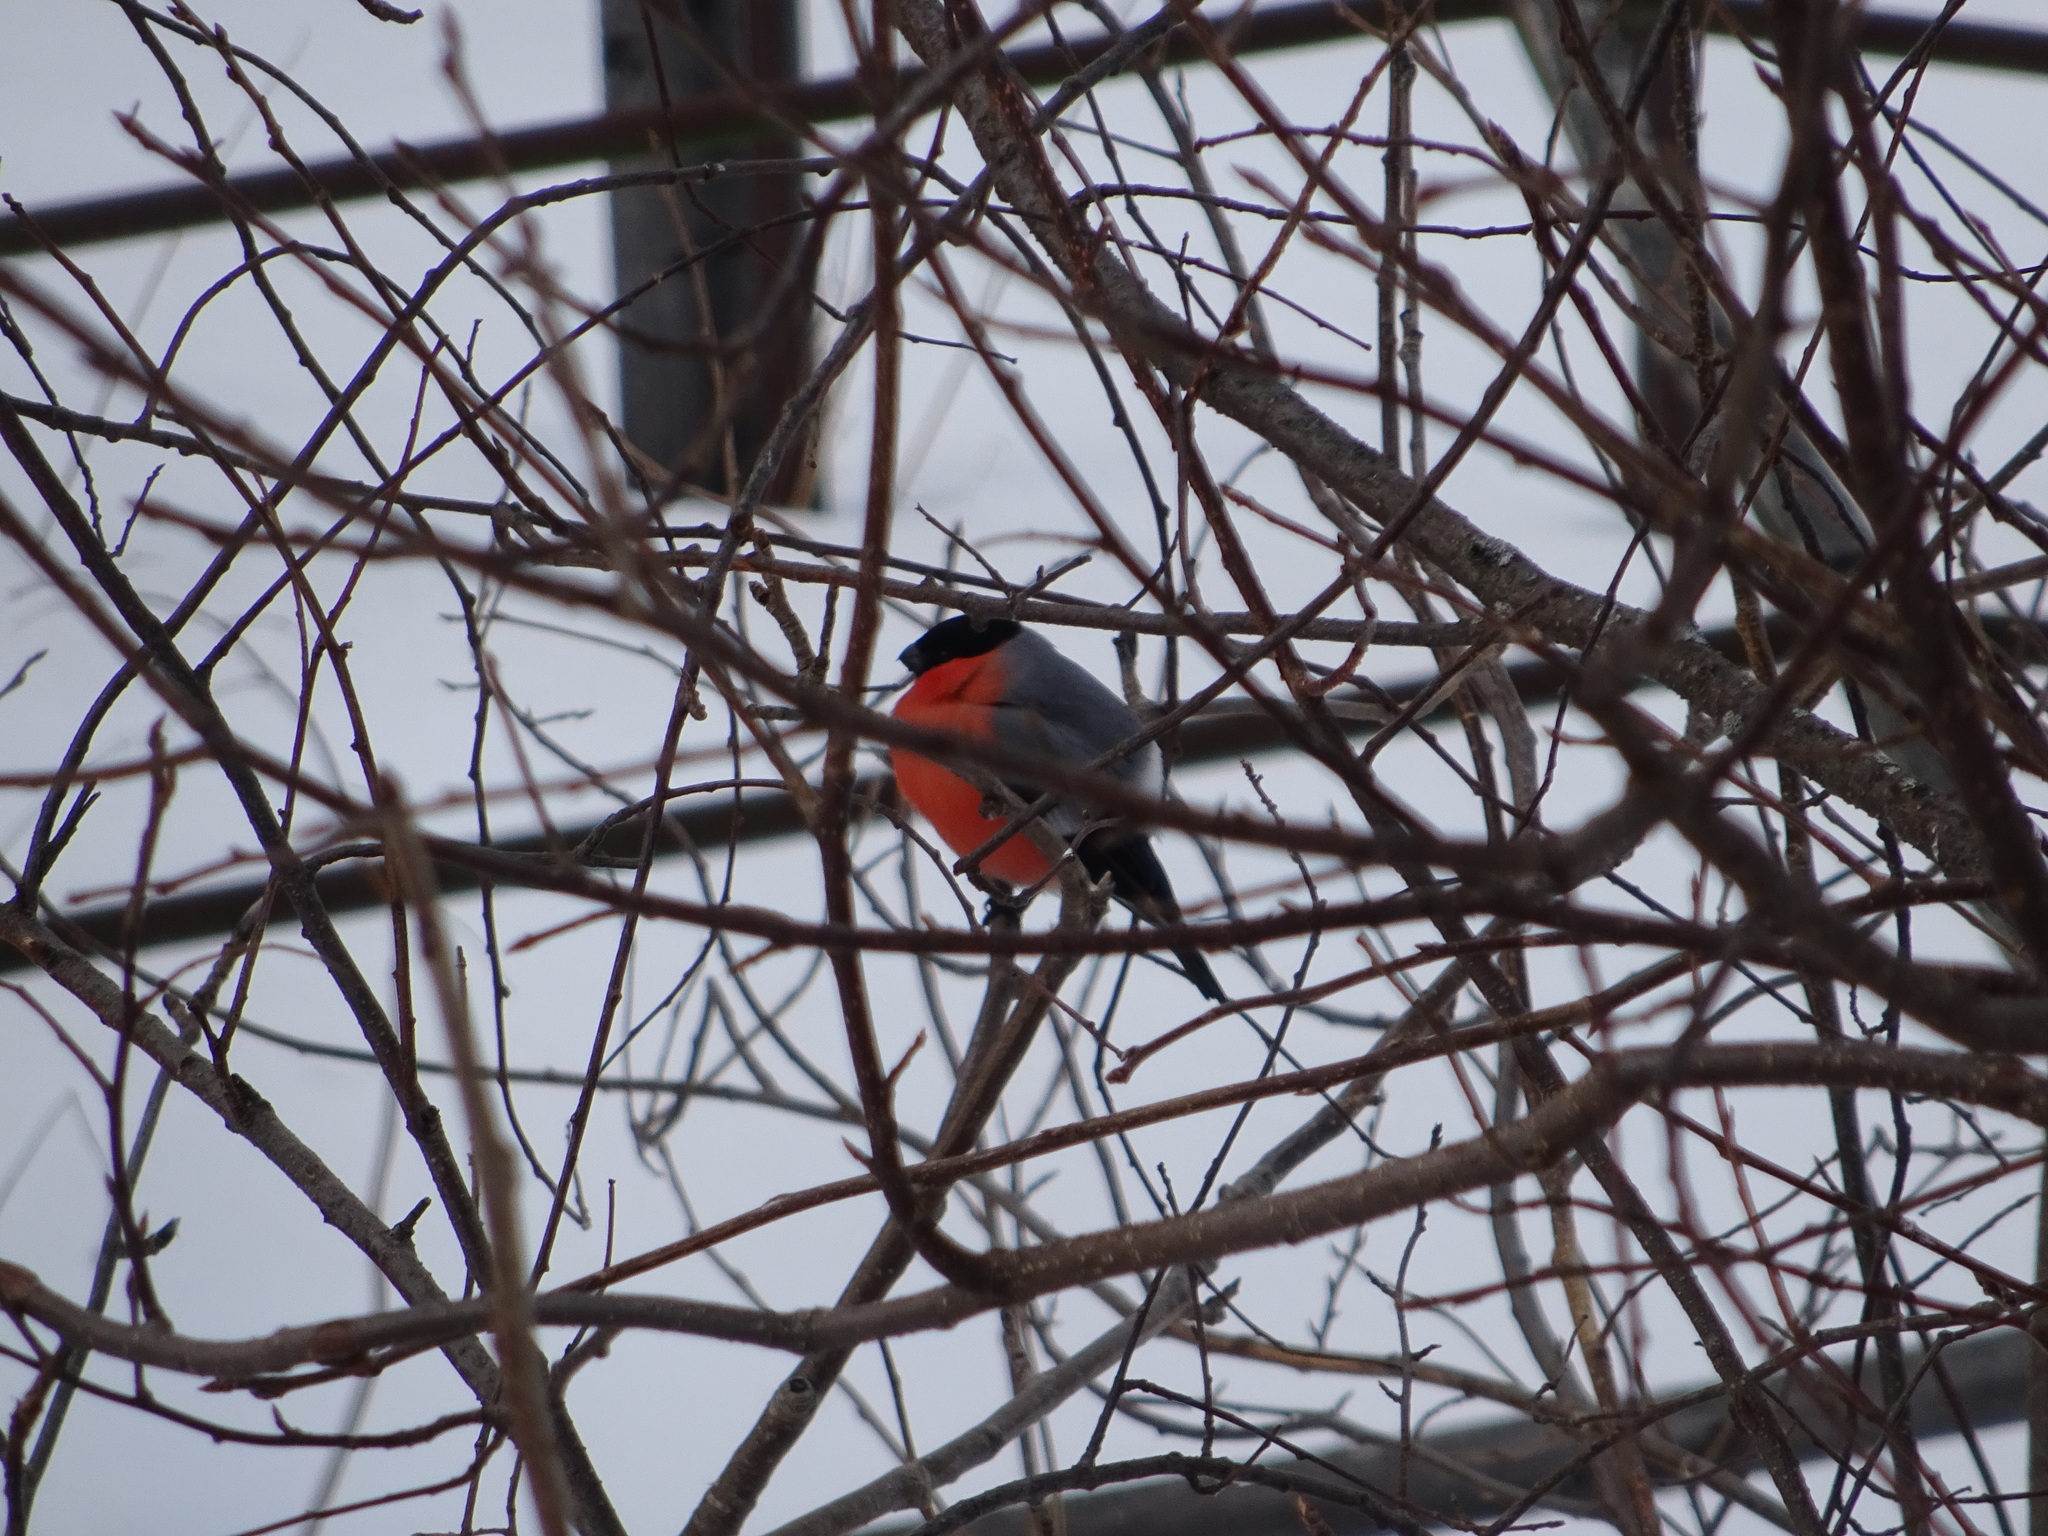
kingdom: Animalia
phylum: Chordata
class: Aves
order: Passeriformes
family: Fringillidae
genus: Pyrrhula
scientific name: Pyrrhula pyrrhula
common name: Eurasian bullfinch
